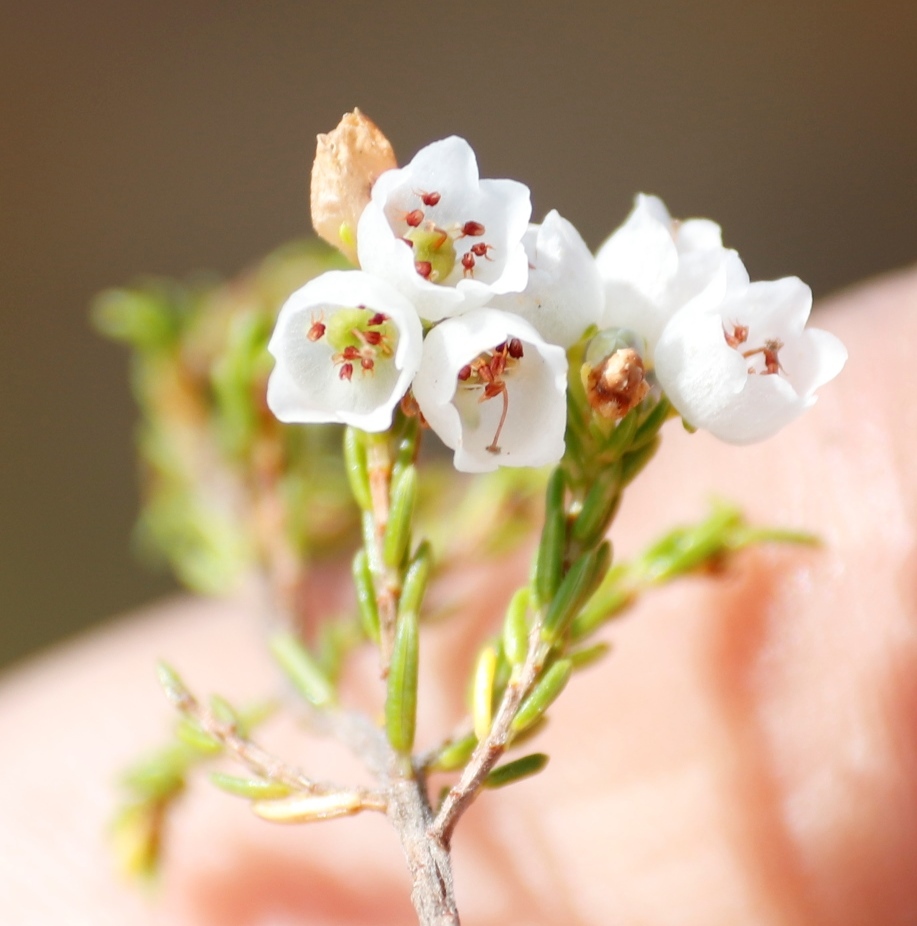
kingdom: Plantae
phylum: Tracheophyta
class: Magnoliopsida
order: Ericales
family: Ericaceae
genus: Erica
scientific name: Erica subdivaricata
